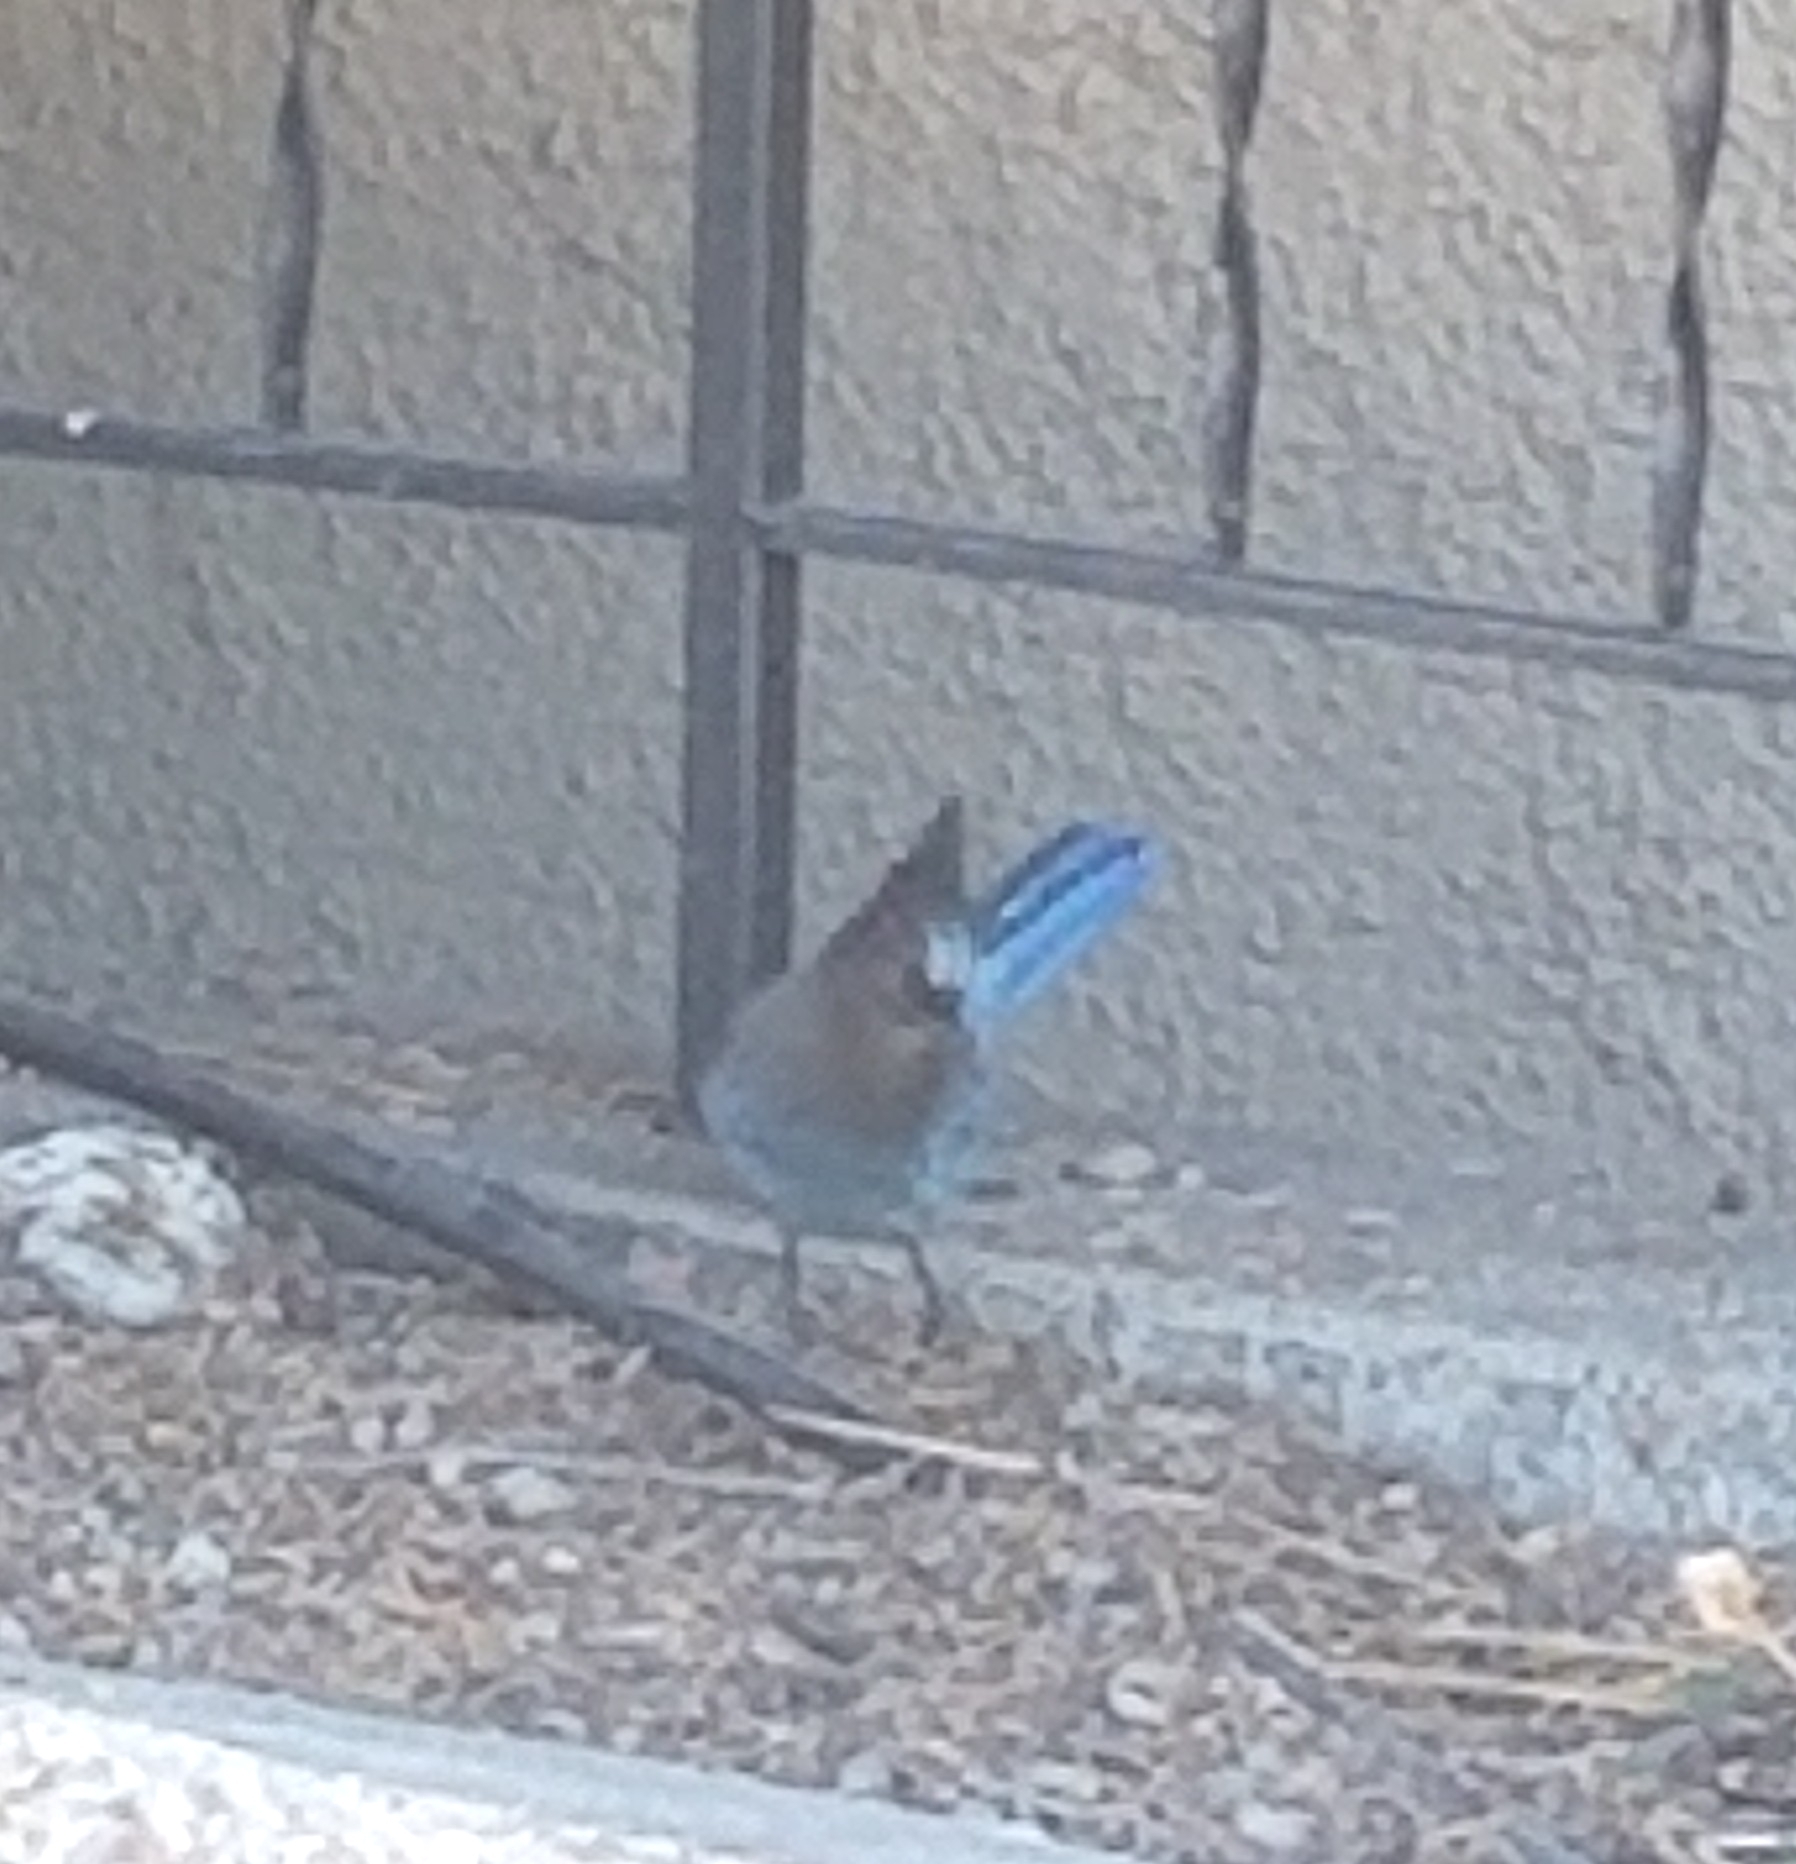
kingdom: Animalia
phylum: Chordata
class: Aves
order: Passeriformes
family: Corvidae
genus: Cyanocitta
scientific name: Cyanocitta stelleri
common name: Steller's jay
